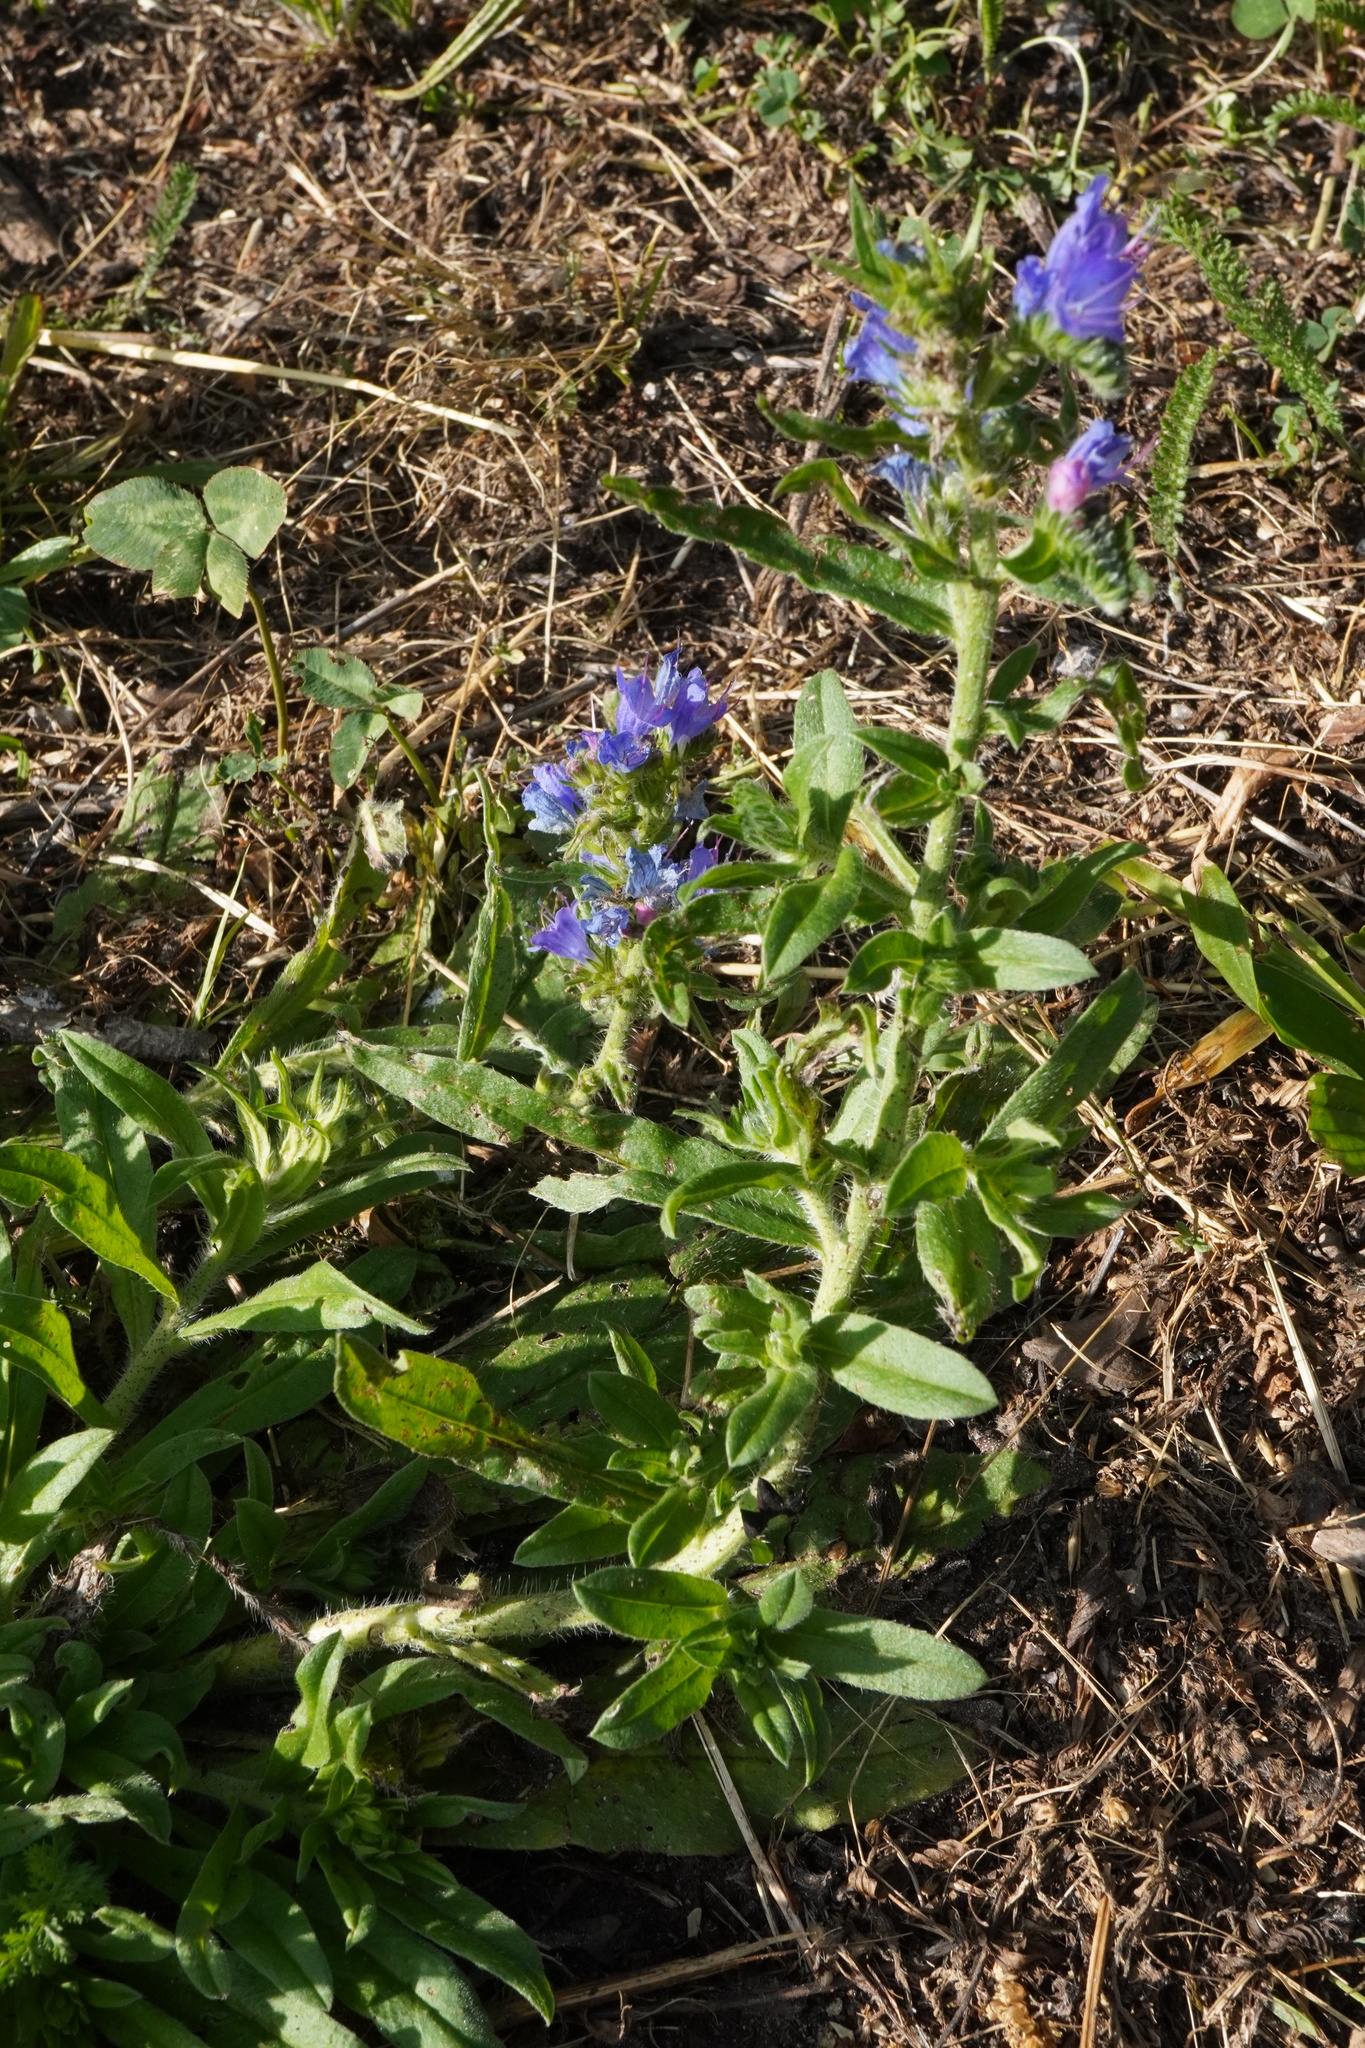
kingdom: Plantae
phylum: Tracheophyta
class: Magnoliopsida
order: Boraginales
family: Boraginaceae
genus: Echium
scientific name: Echium vulgare
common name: Common viper's bugloss
